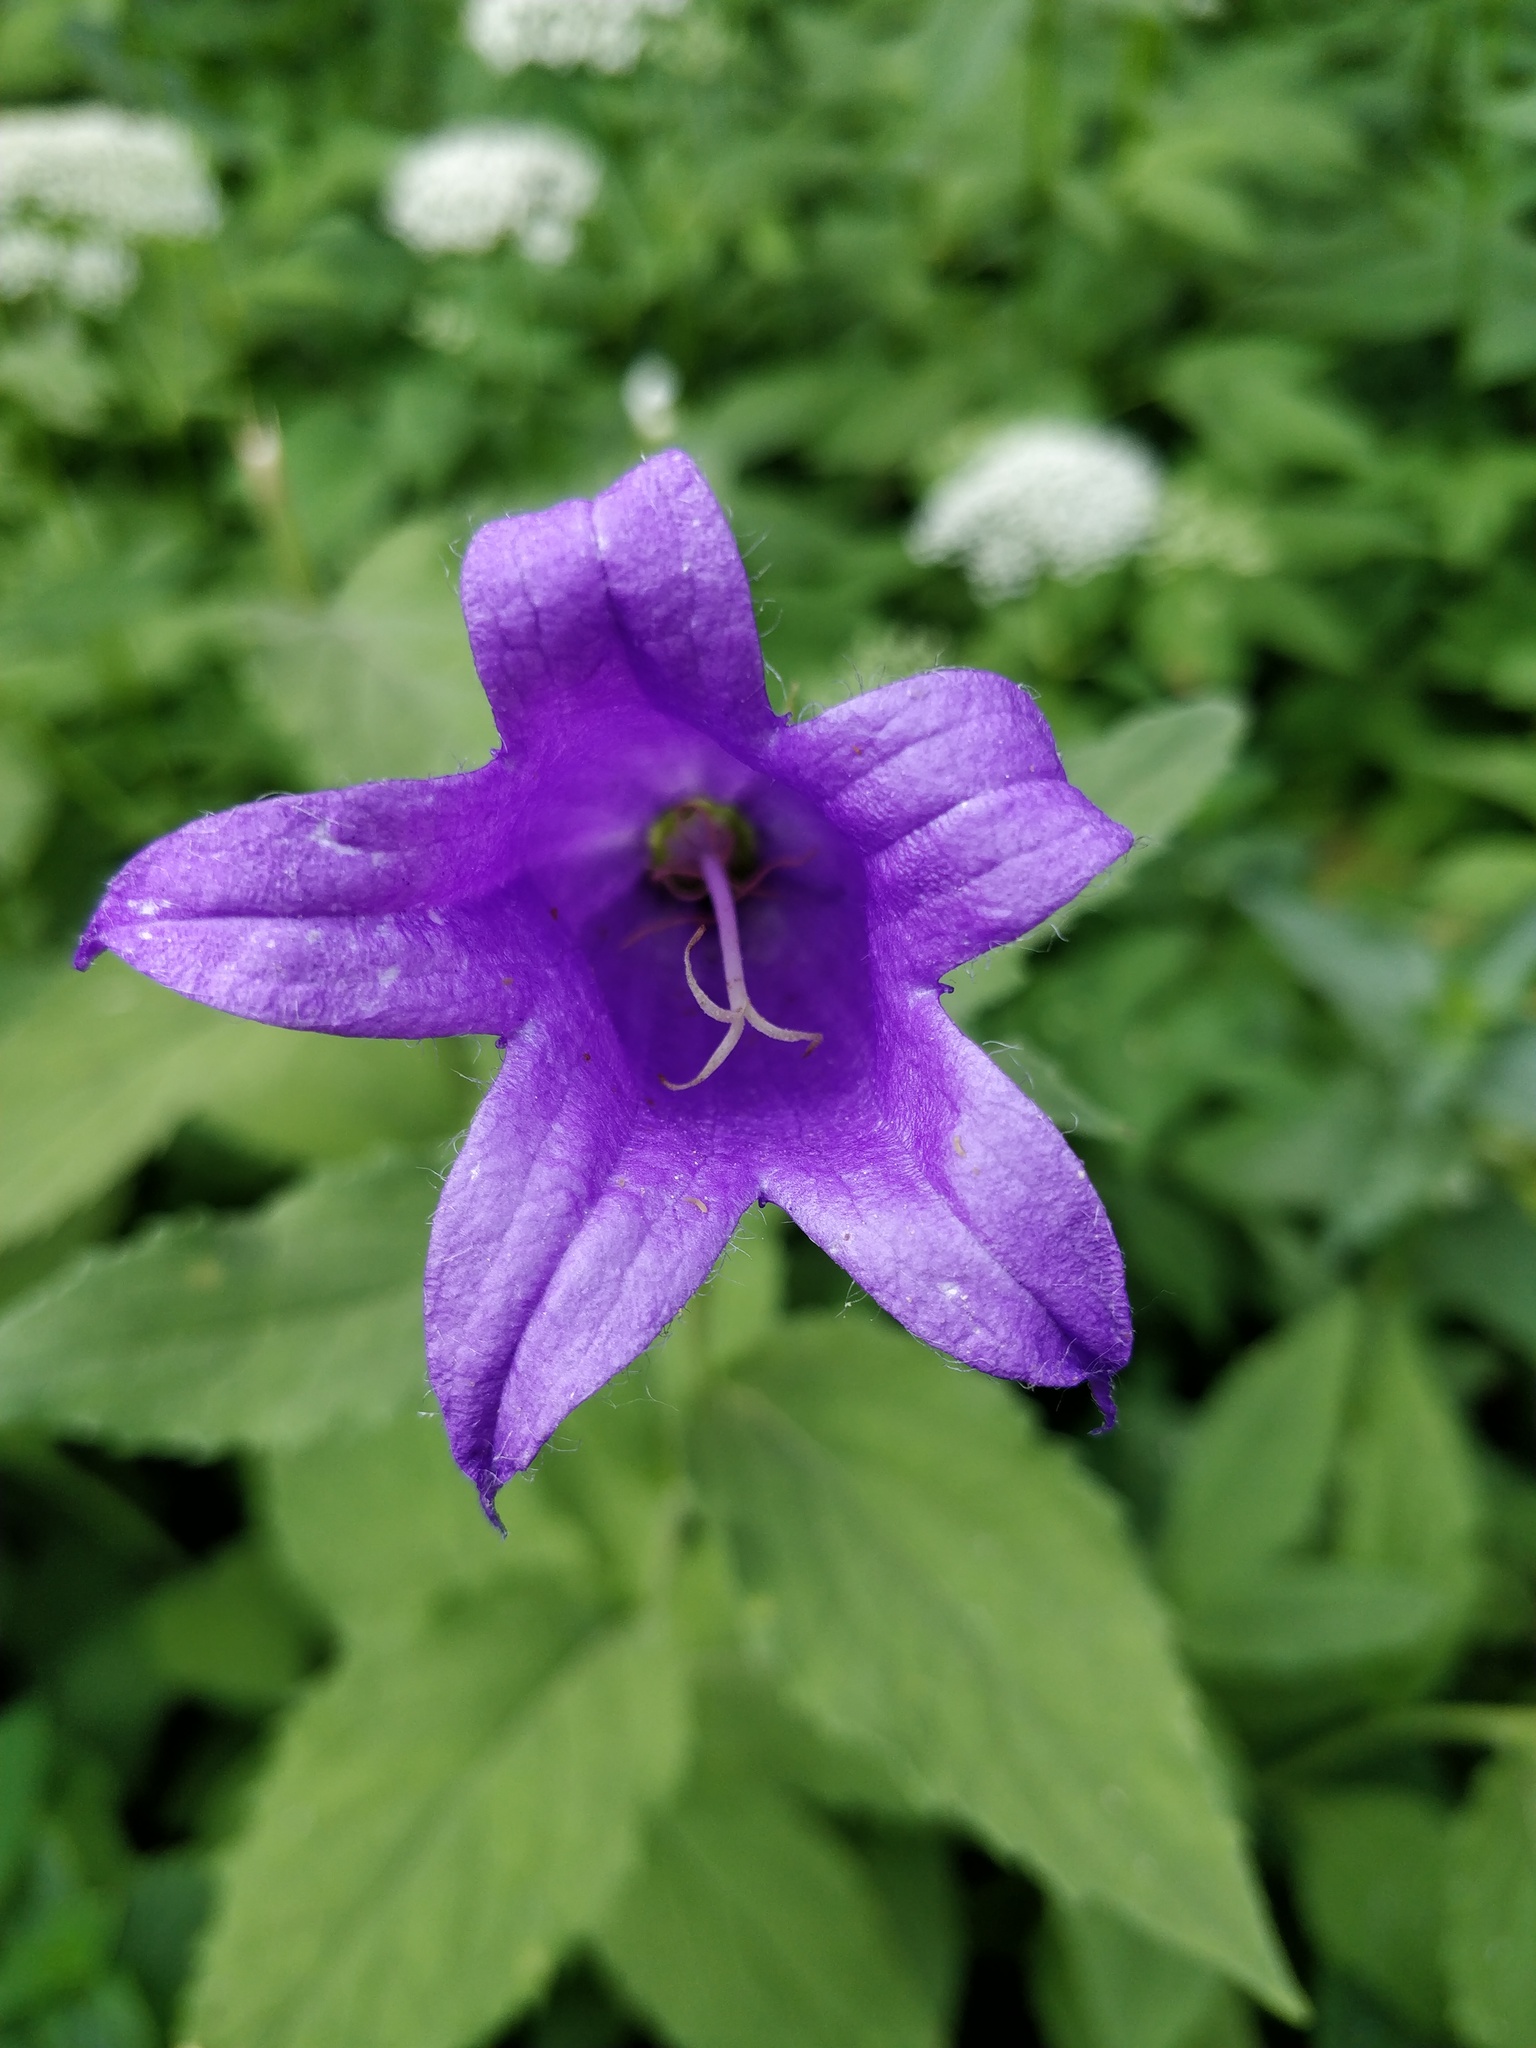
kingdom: Plantae
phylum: Tracheophyta
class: Magnoliopsida
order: Asterales
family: Campanulaceae
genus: Campanula
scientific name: Campanula latifolia
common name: Giant bellflower
